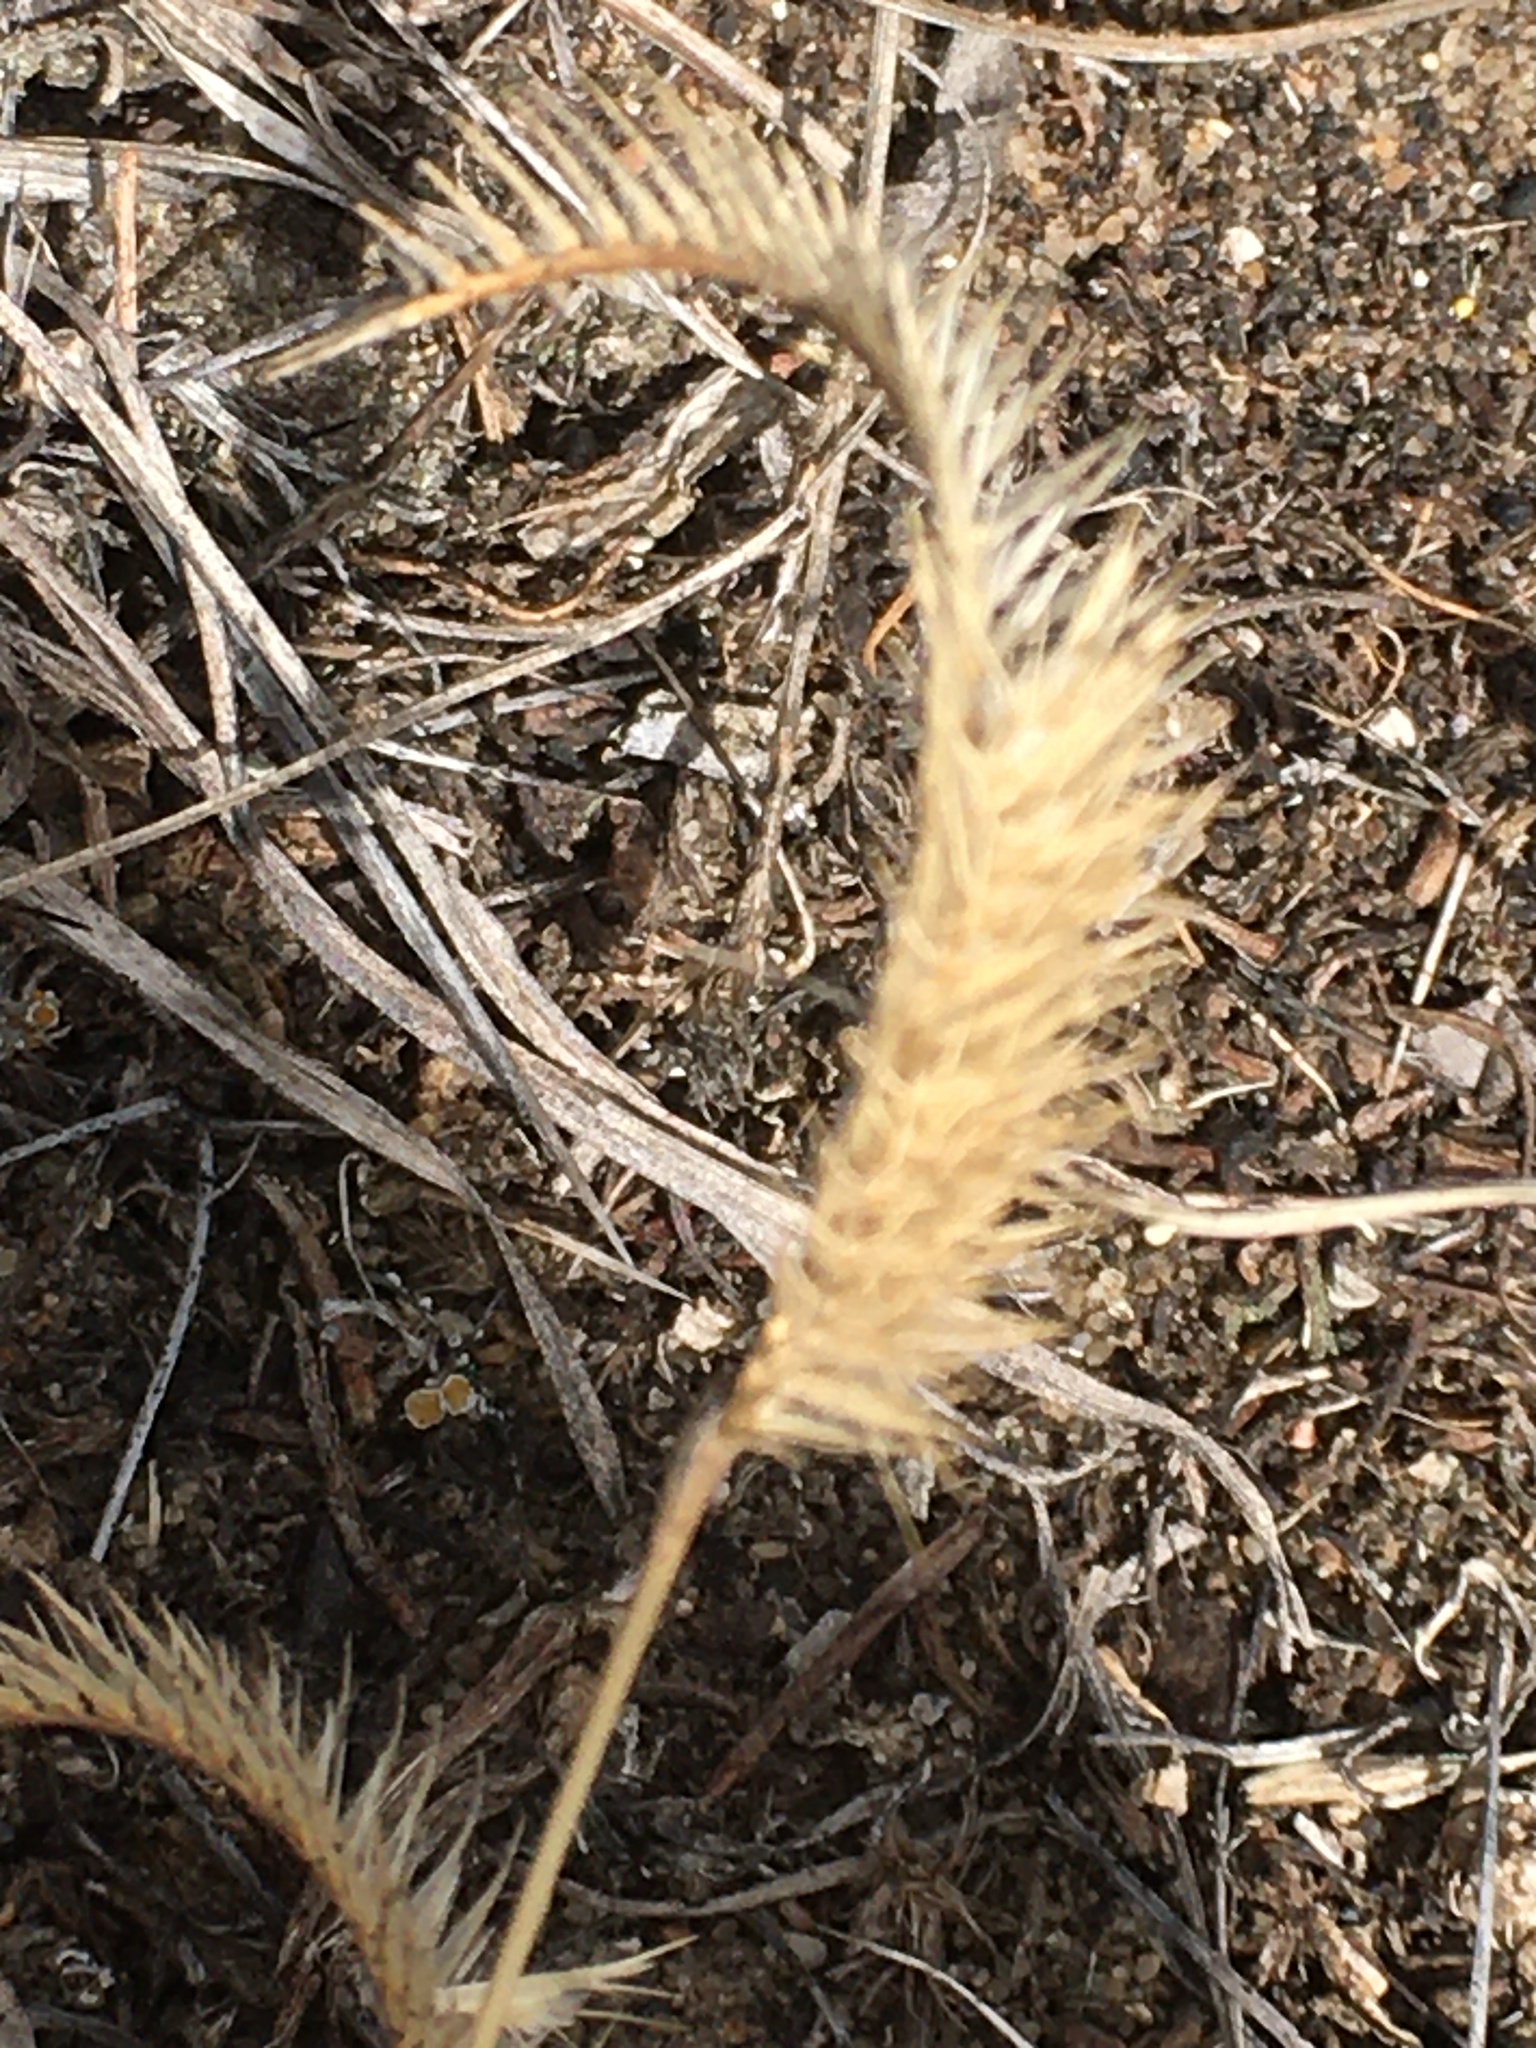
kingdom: Plantae
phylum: Tracheophyta
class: Liliopsida
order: Poales
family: Poaceae
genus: Bouteloua
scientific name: Bouteloua gracilis
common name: Blue grama
